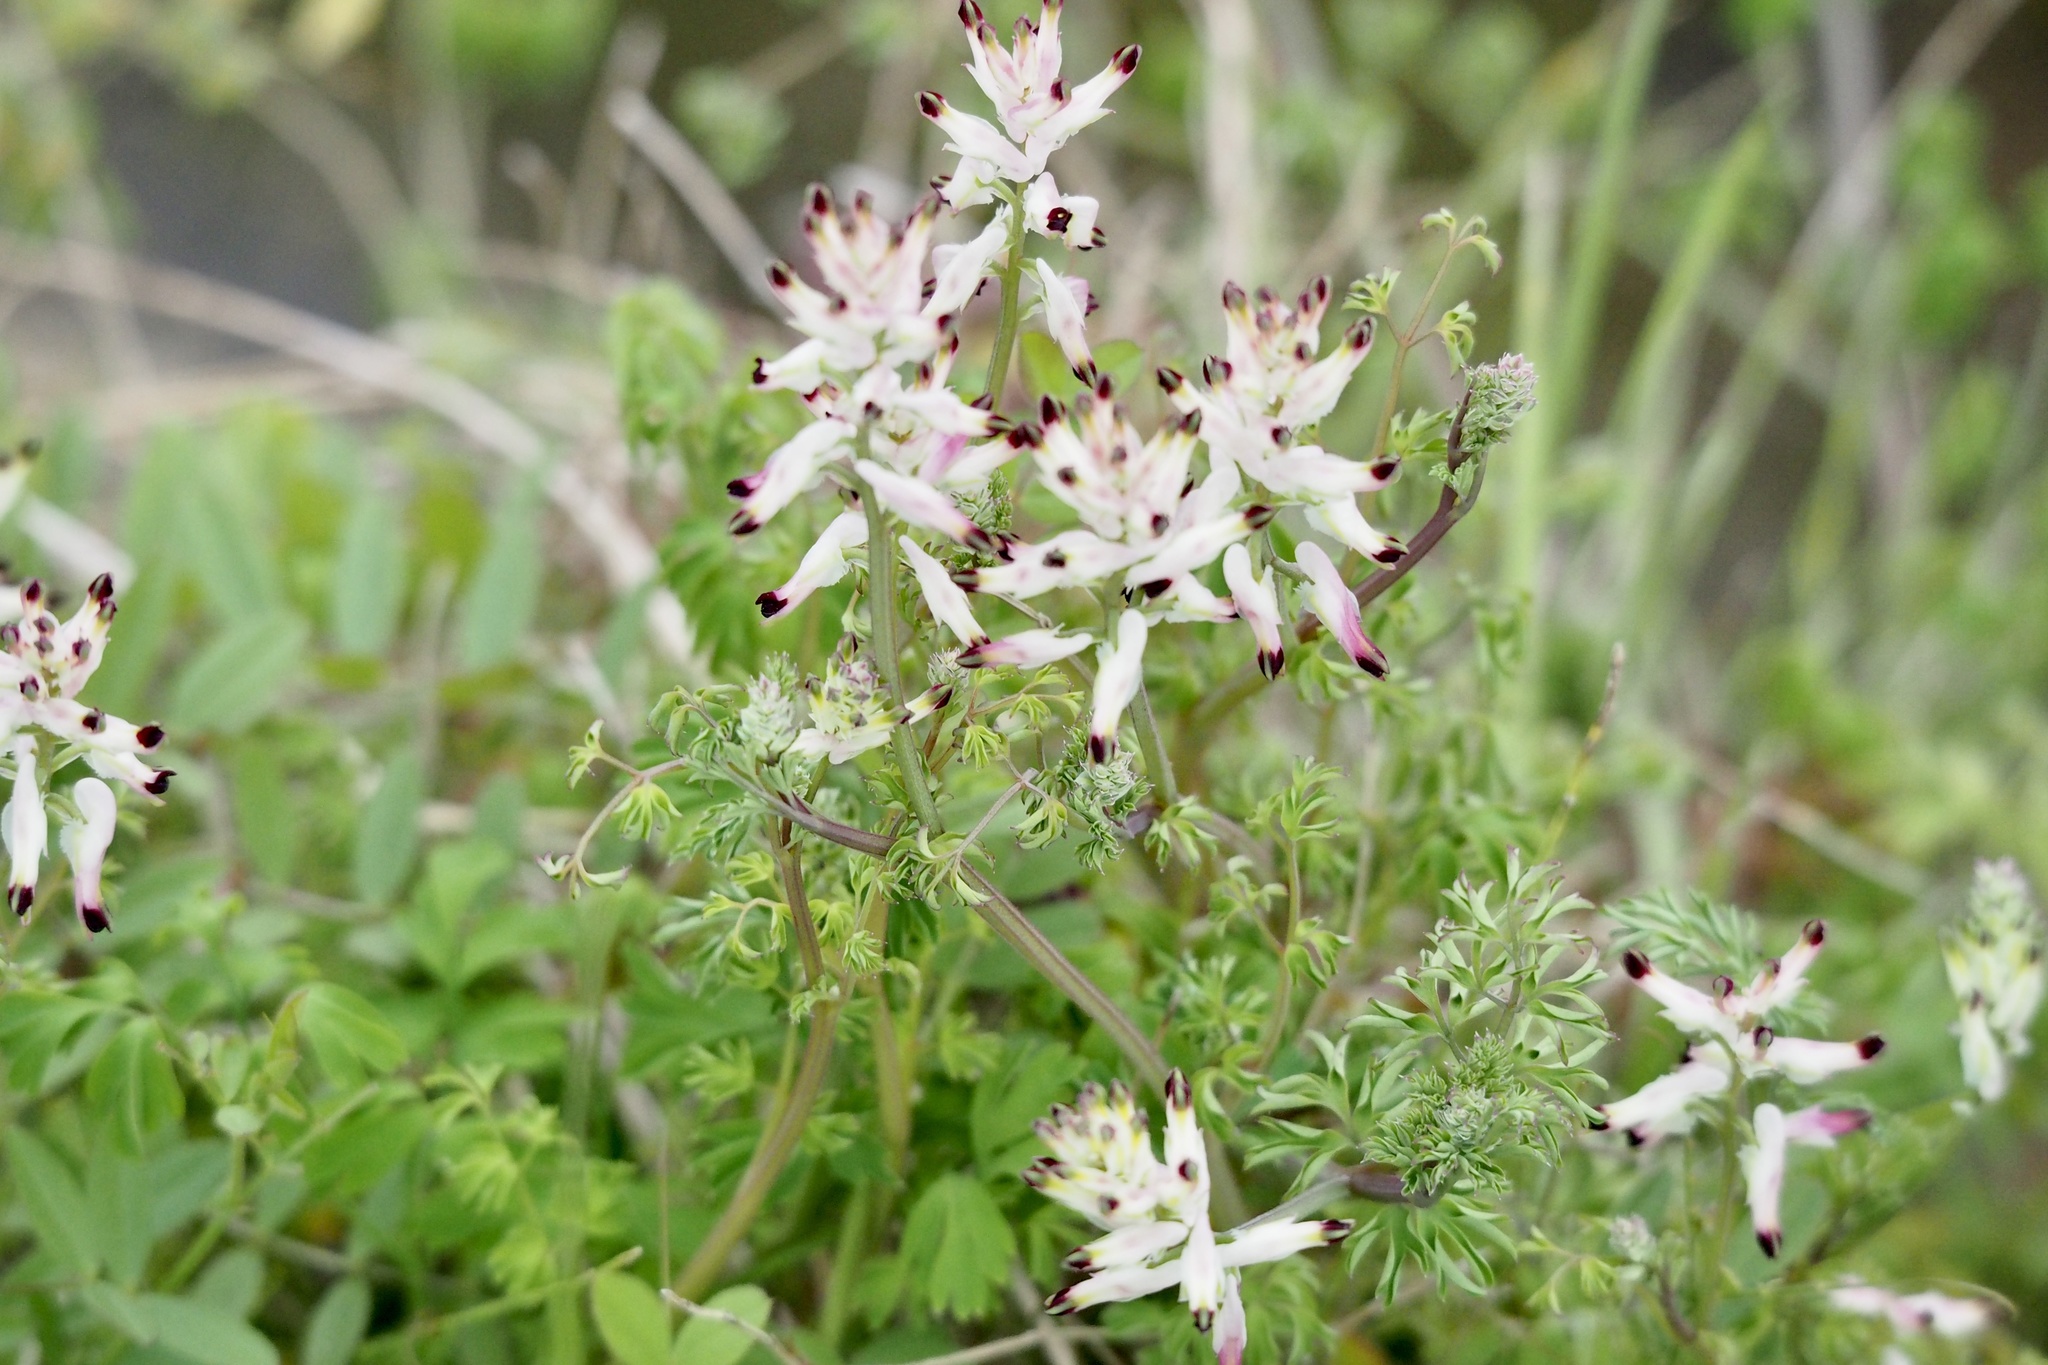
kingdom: Plantae
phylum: Tracheophyta
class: Magnoliopsida
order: Ranunculales
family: Papaveraceae
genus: Fumaria
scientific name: Fumaria capreolata
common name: White ramping-fumitory
